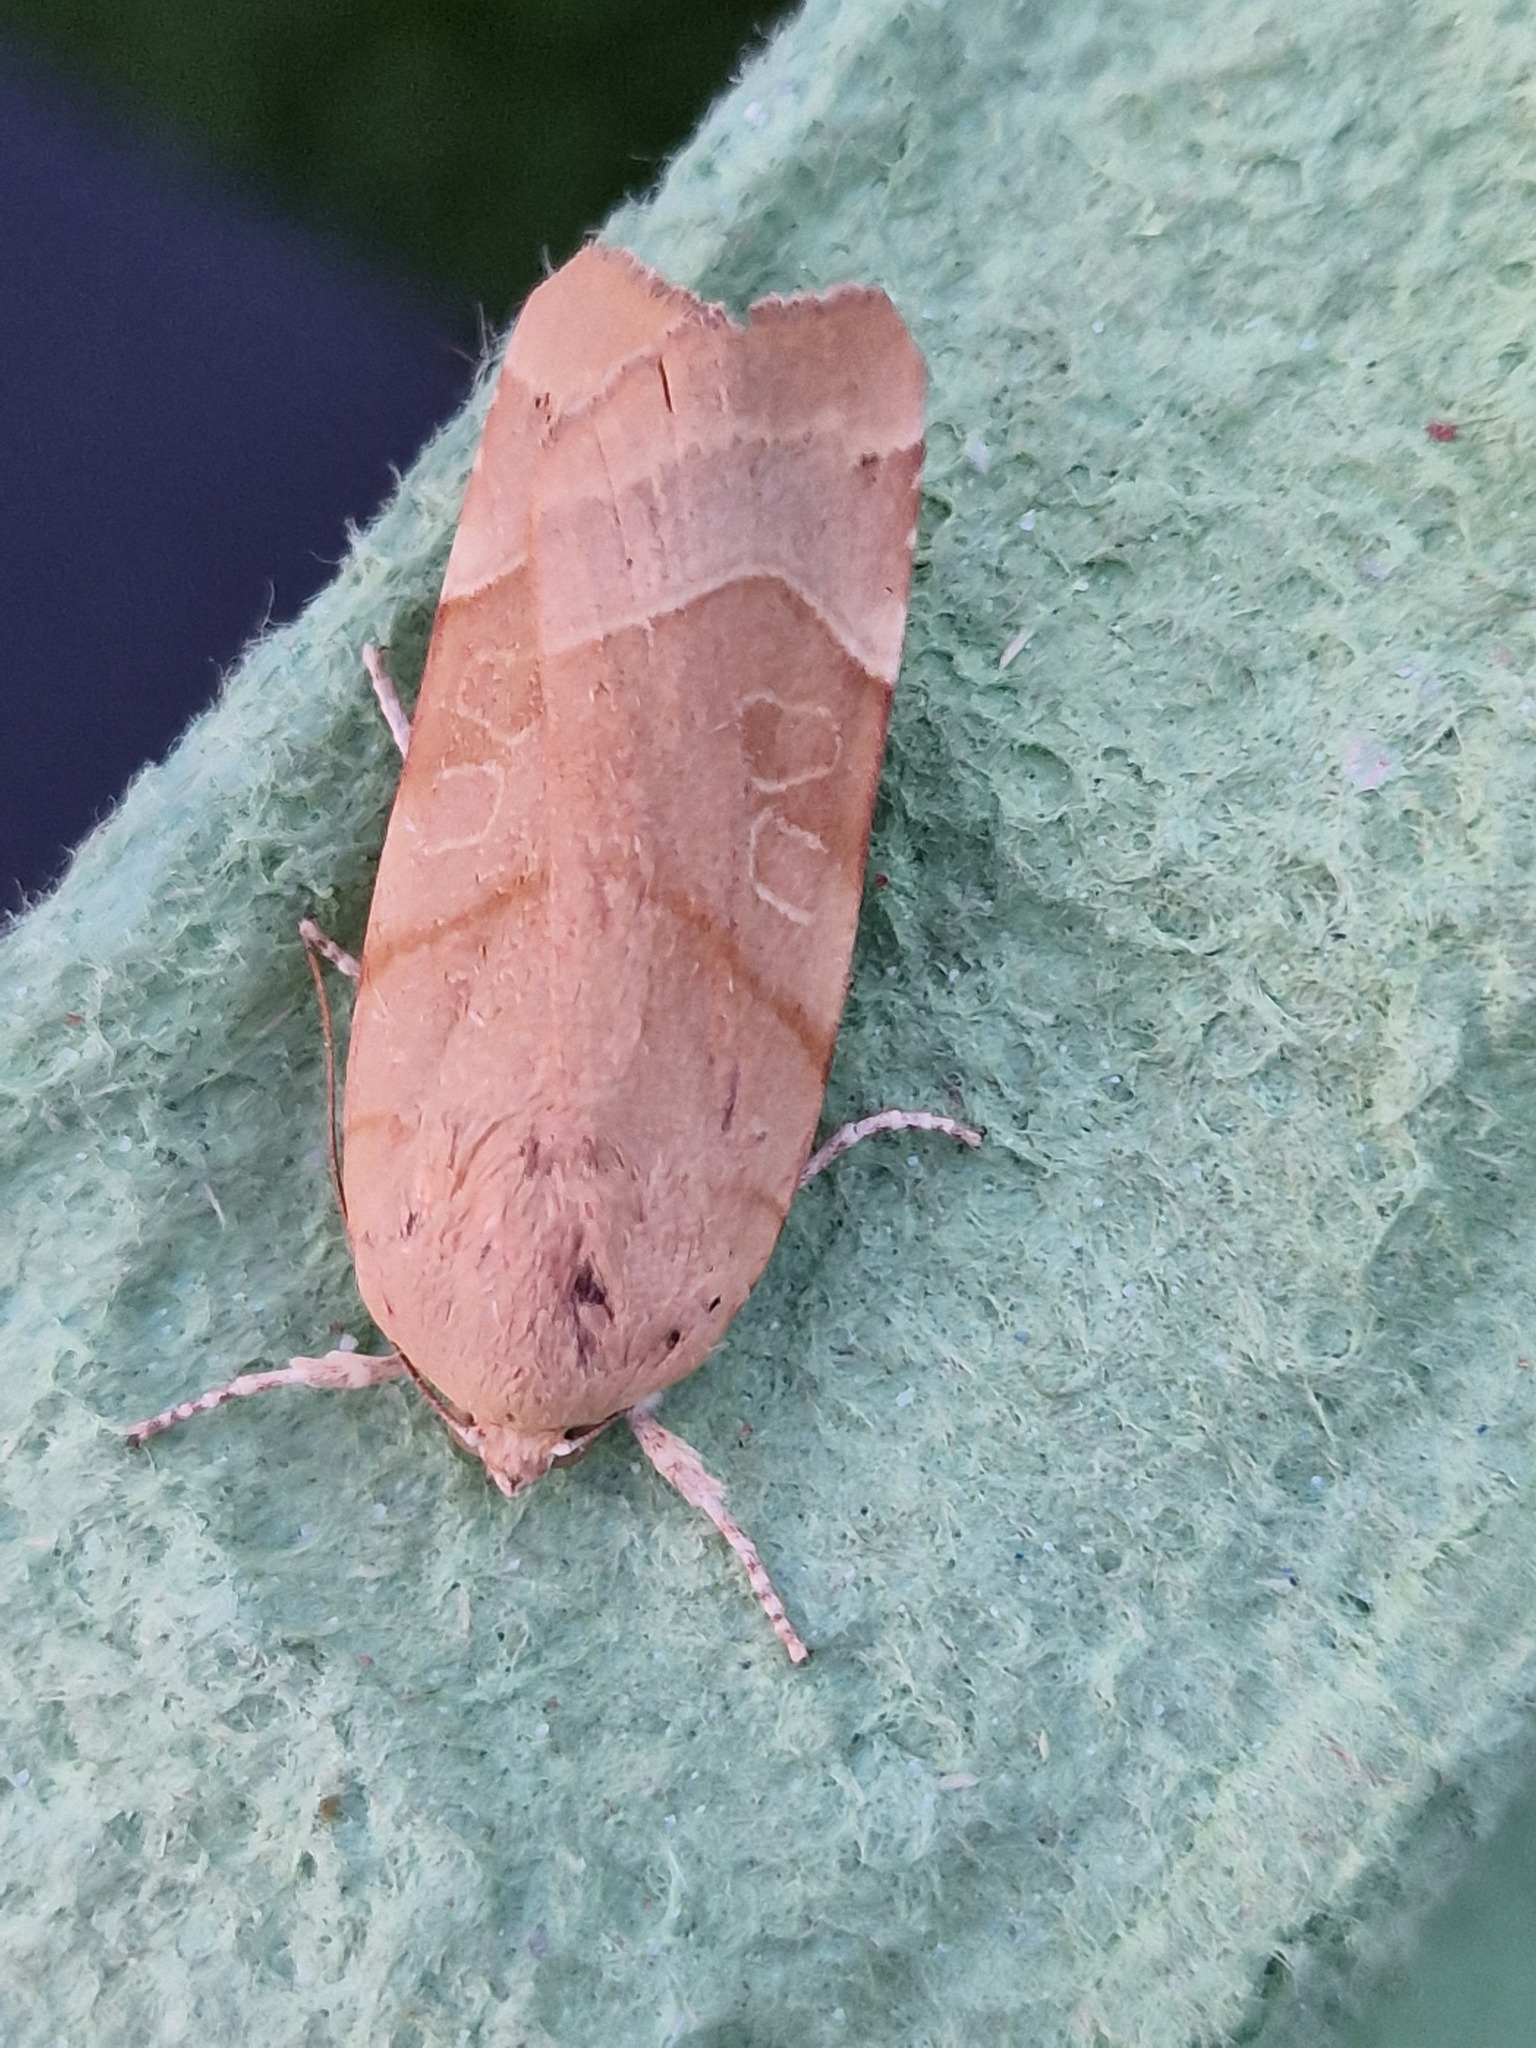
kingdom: Animalia
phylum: Arthropoda
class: Insecta
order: Lepidoptera
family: Noctuidae
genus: Noctua
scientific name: Noctua fimbriata
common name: Broad-bordered yellow underwing
